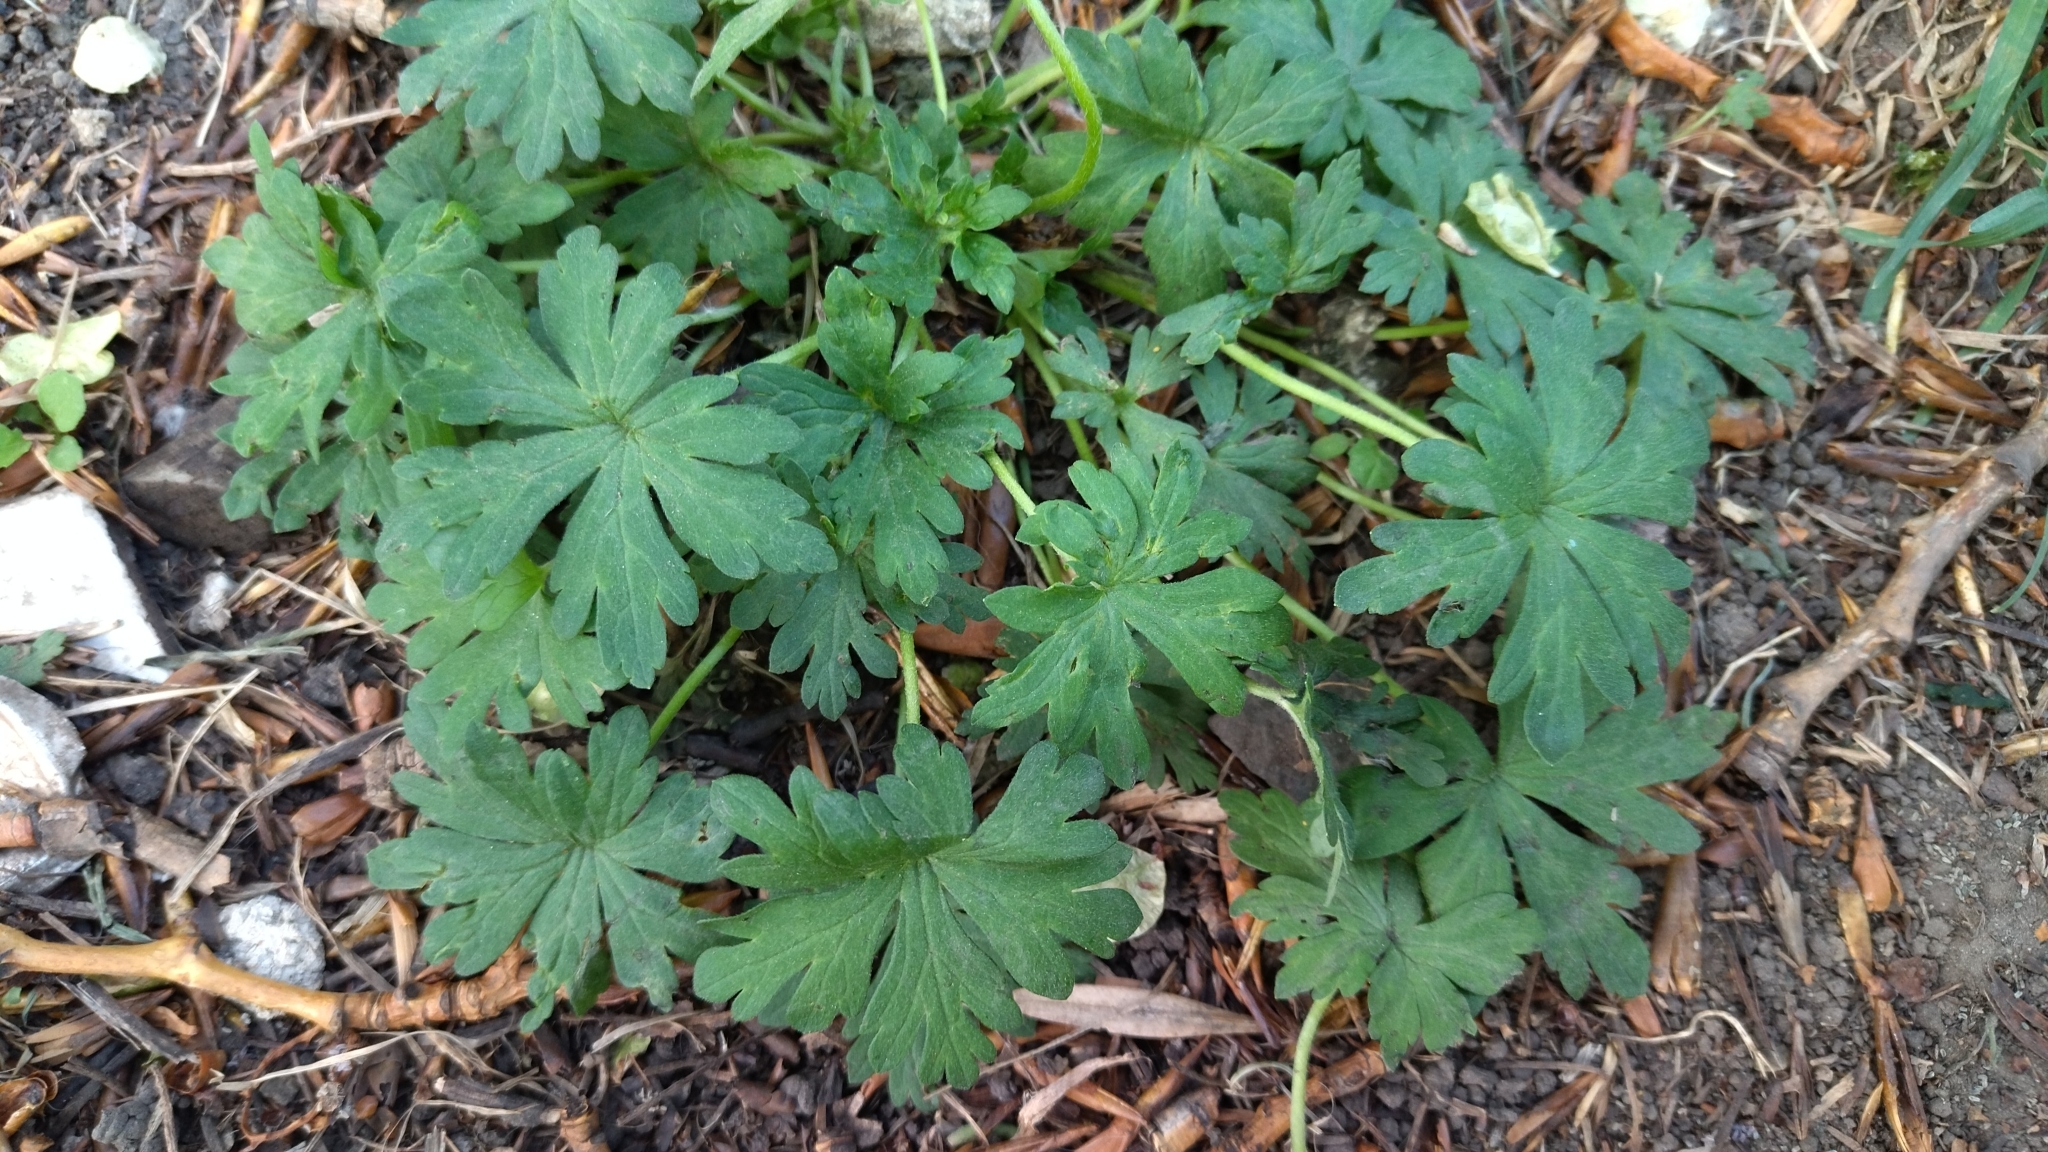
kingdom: Plantae
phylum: Tracheophyta
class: Magnoliopsida
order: Geraniales
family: Geraniaceae
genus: Geranium
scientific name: Geranium sibiricum
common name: Siberian crane's-bill
